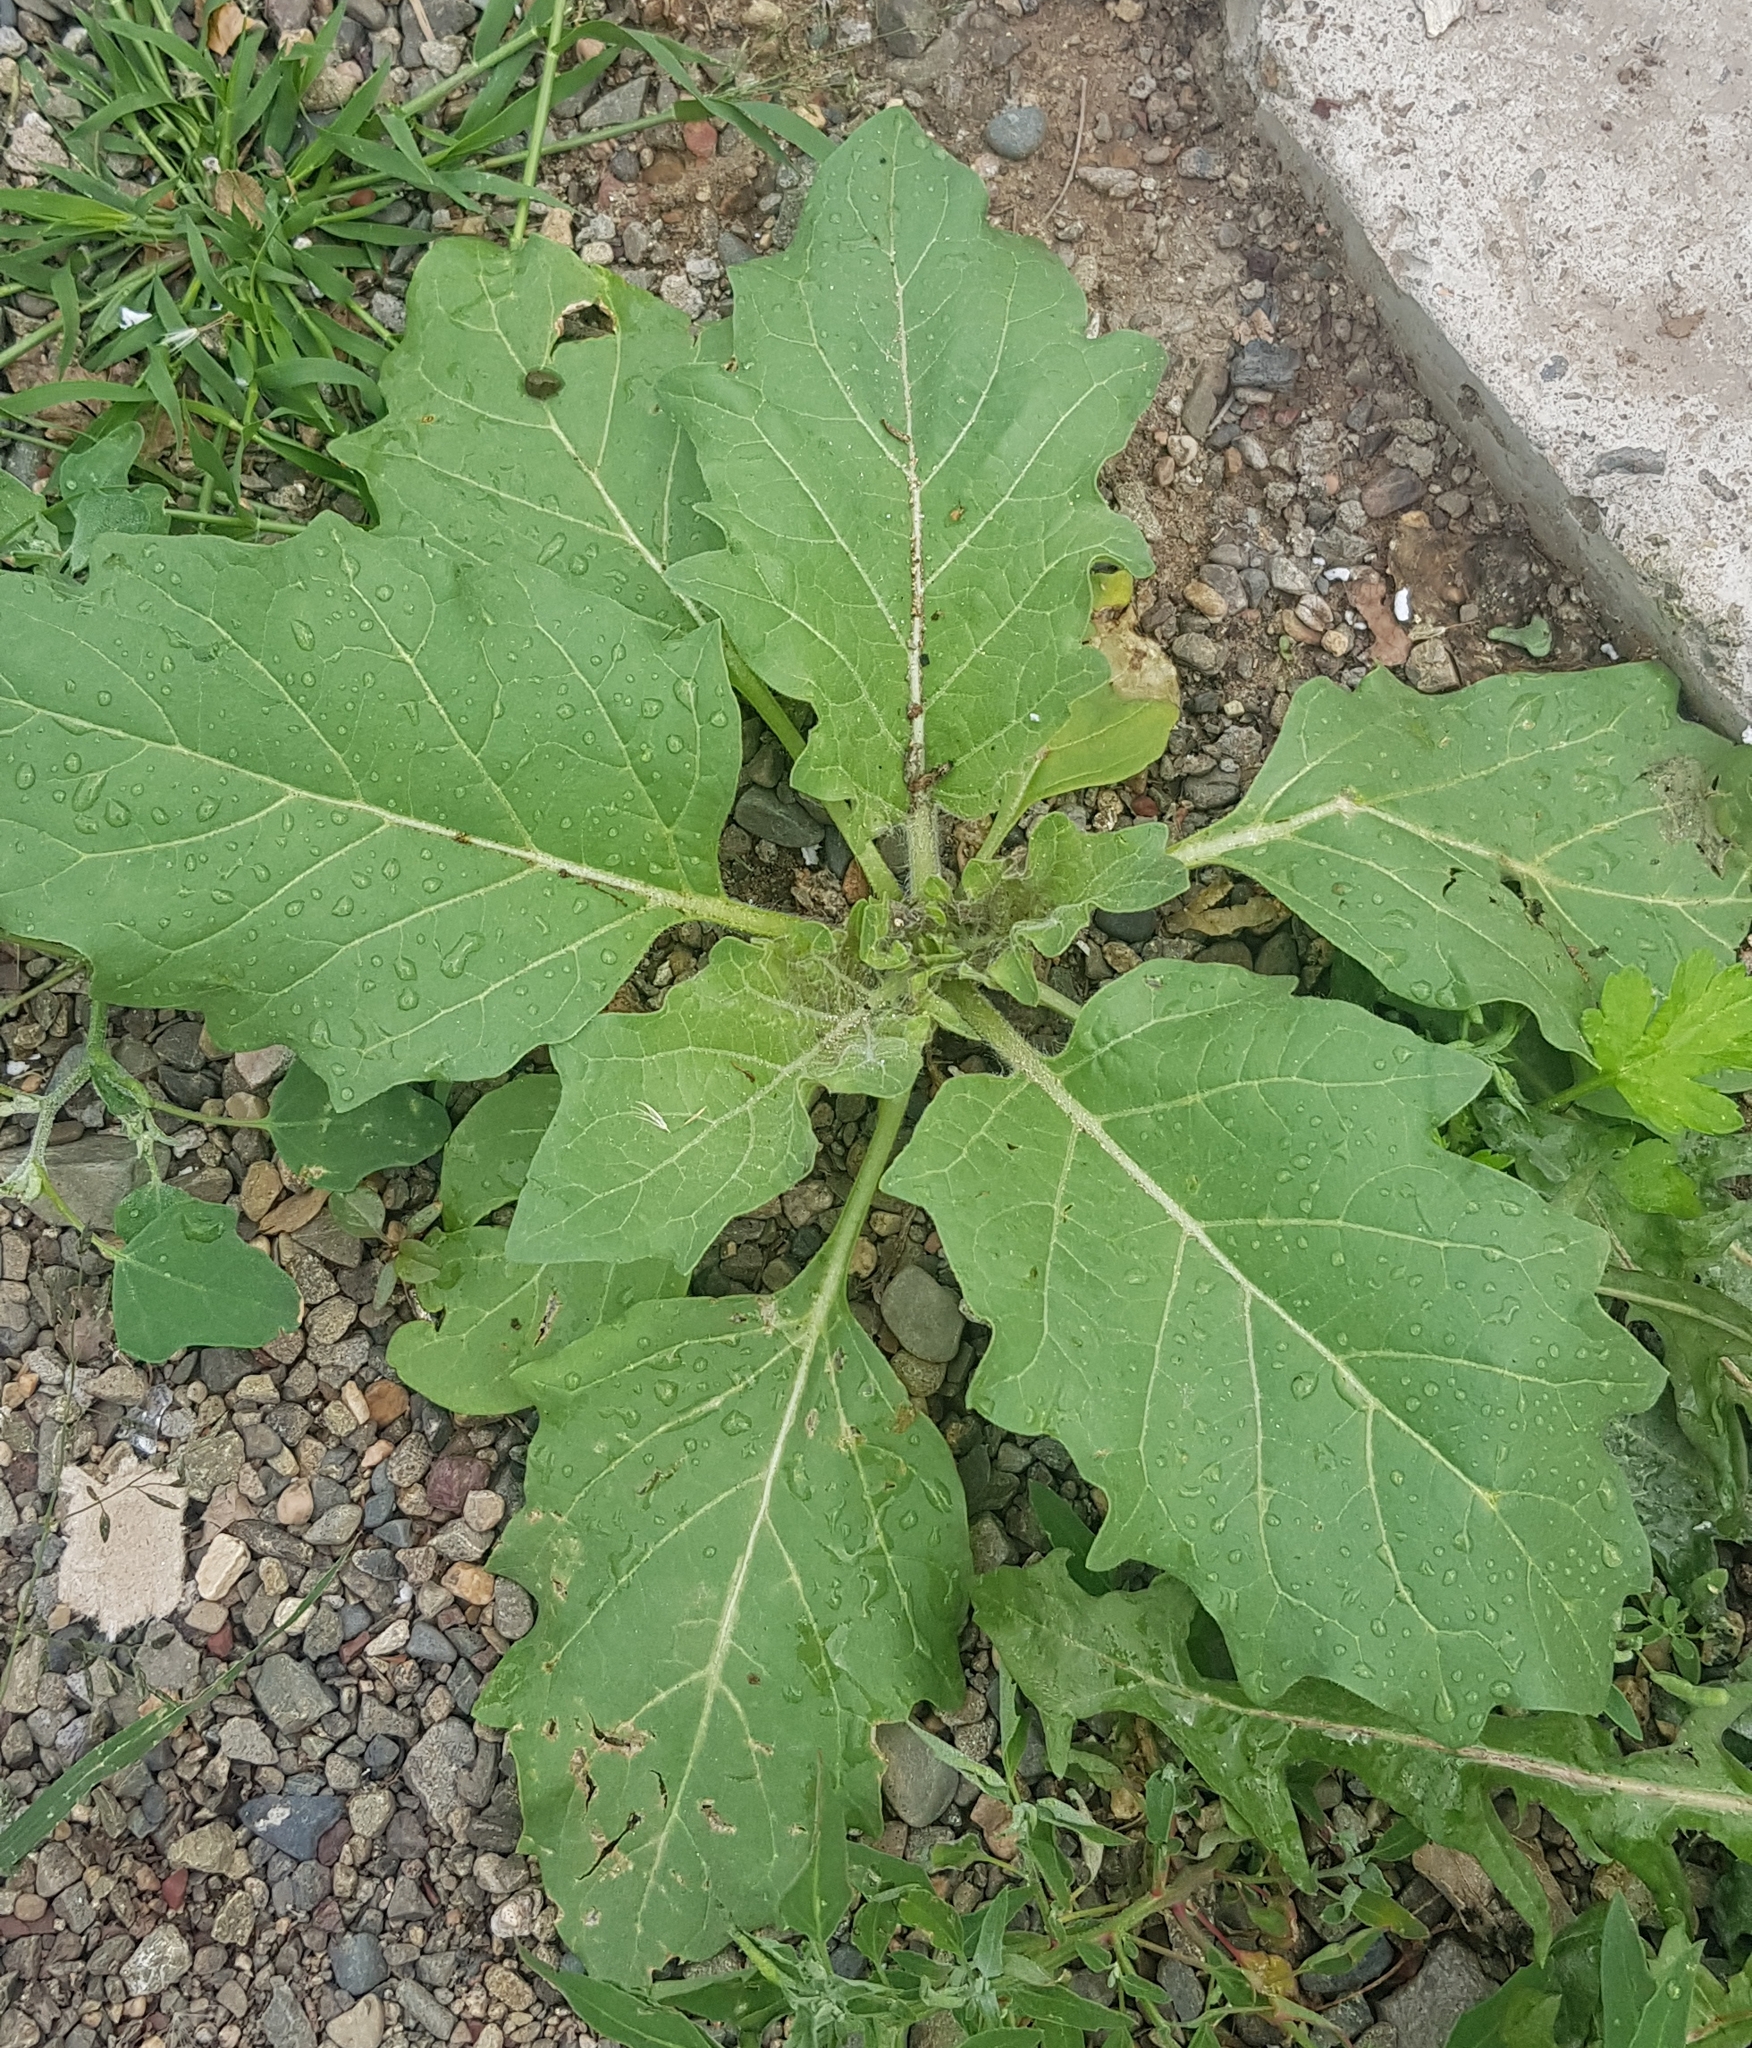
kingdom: Plantae
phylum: Tracheophyta
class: Magnoliopsida
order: Solanales
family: Solanaceae
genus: Hyoscyamus
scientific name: Hyoscyamus niger
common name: Henbane
